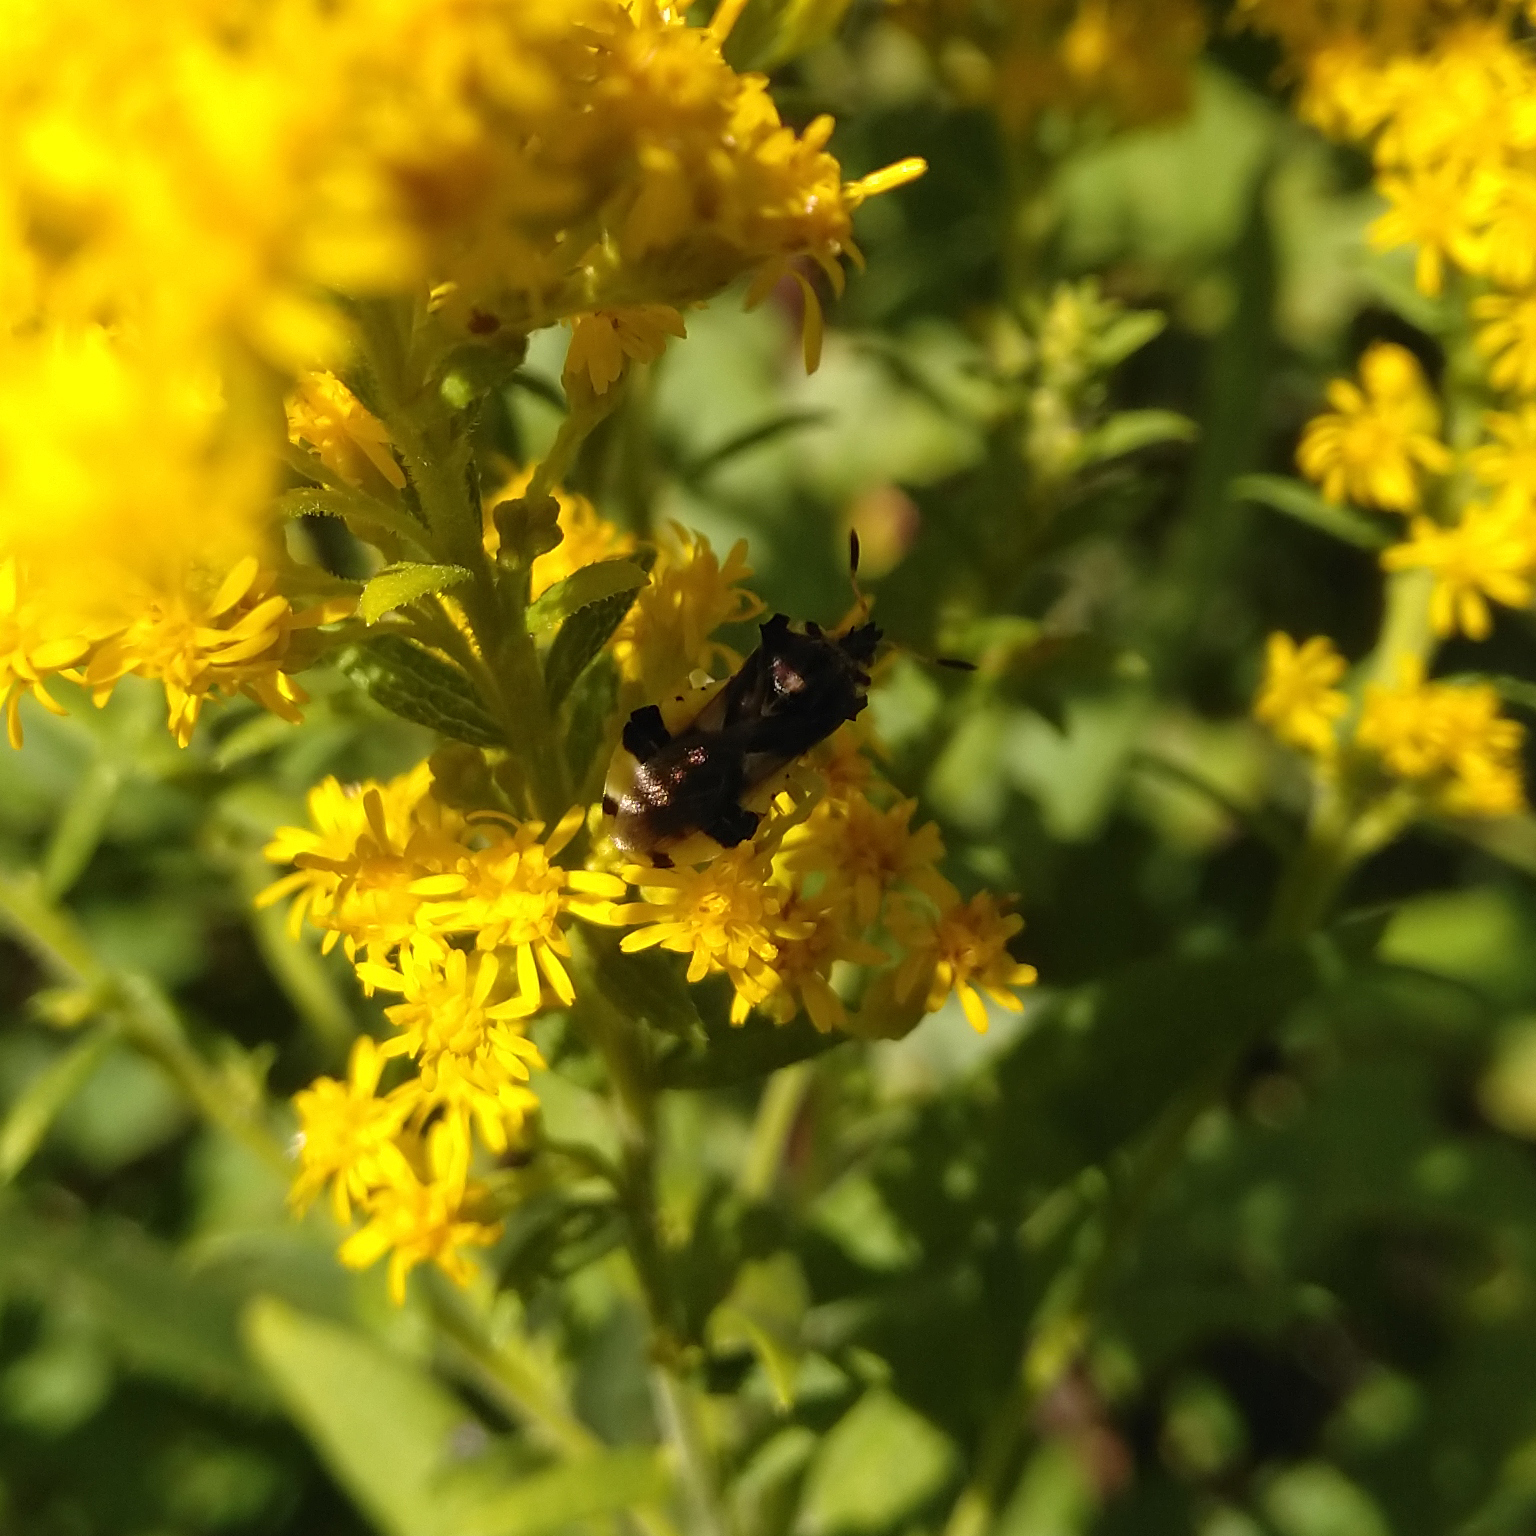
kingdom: Animalia
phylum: Arthropoda
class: Insecta
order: Hemiptera
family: Reduviidae
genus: Phymata
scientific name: Phymata americana
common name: Jagged ambush bug
